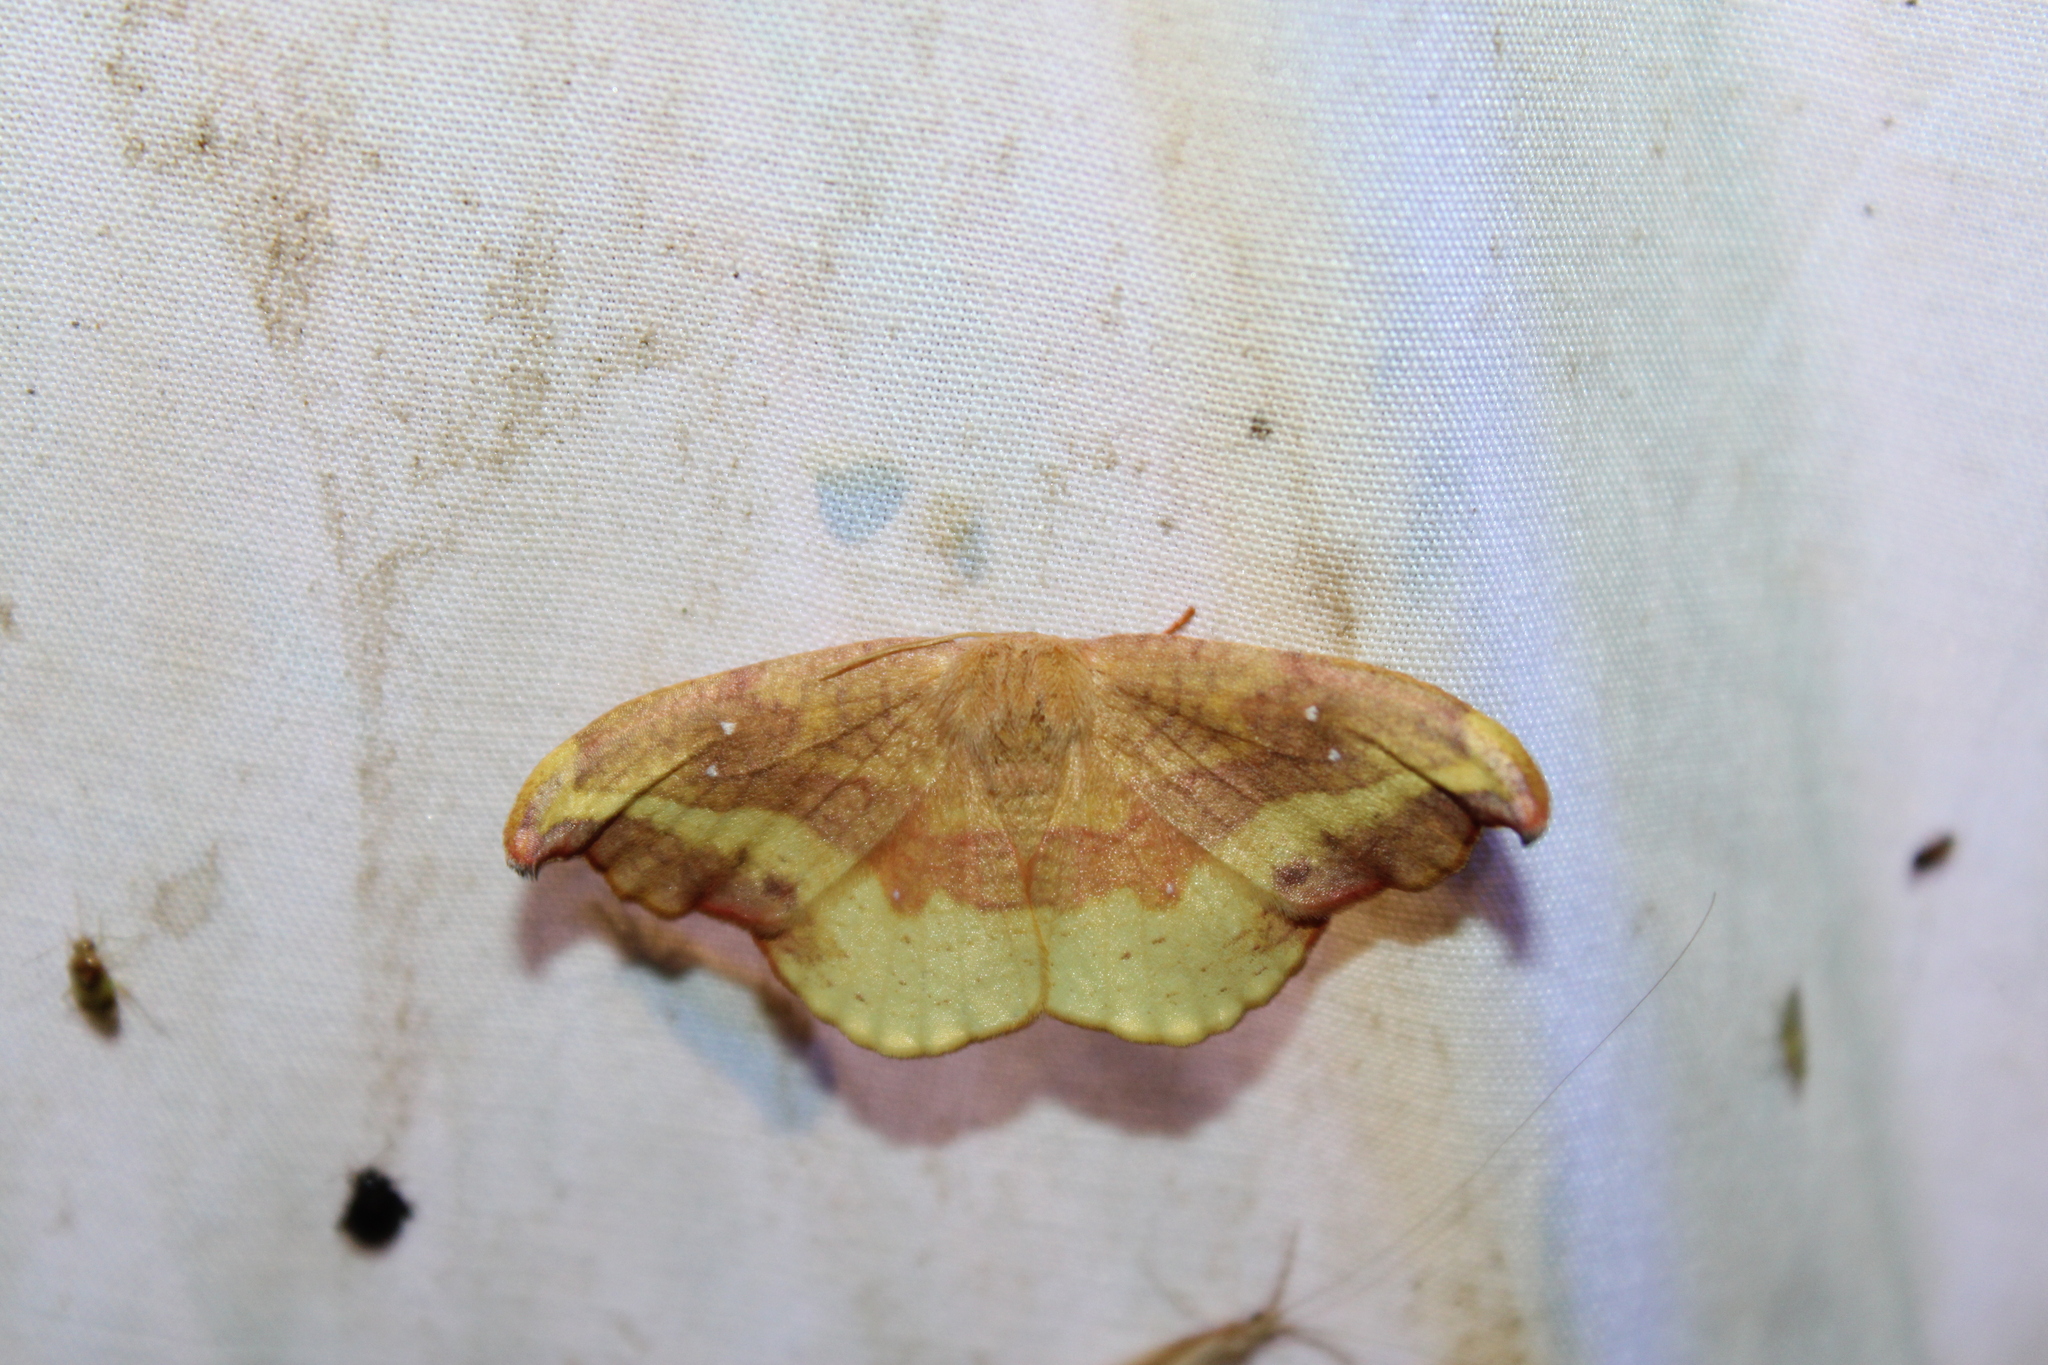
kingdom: Animalia
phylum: Arthropoda
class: Insecta
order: Lepidoptera
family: Drepanidae
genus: Oreta
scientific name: Oreta rosea
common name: Rose hooktip
